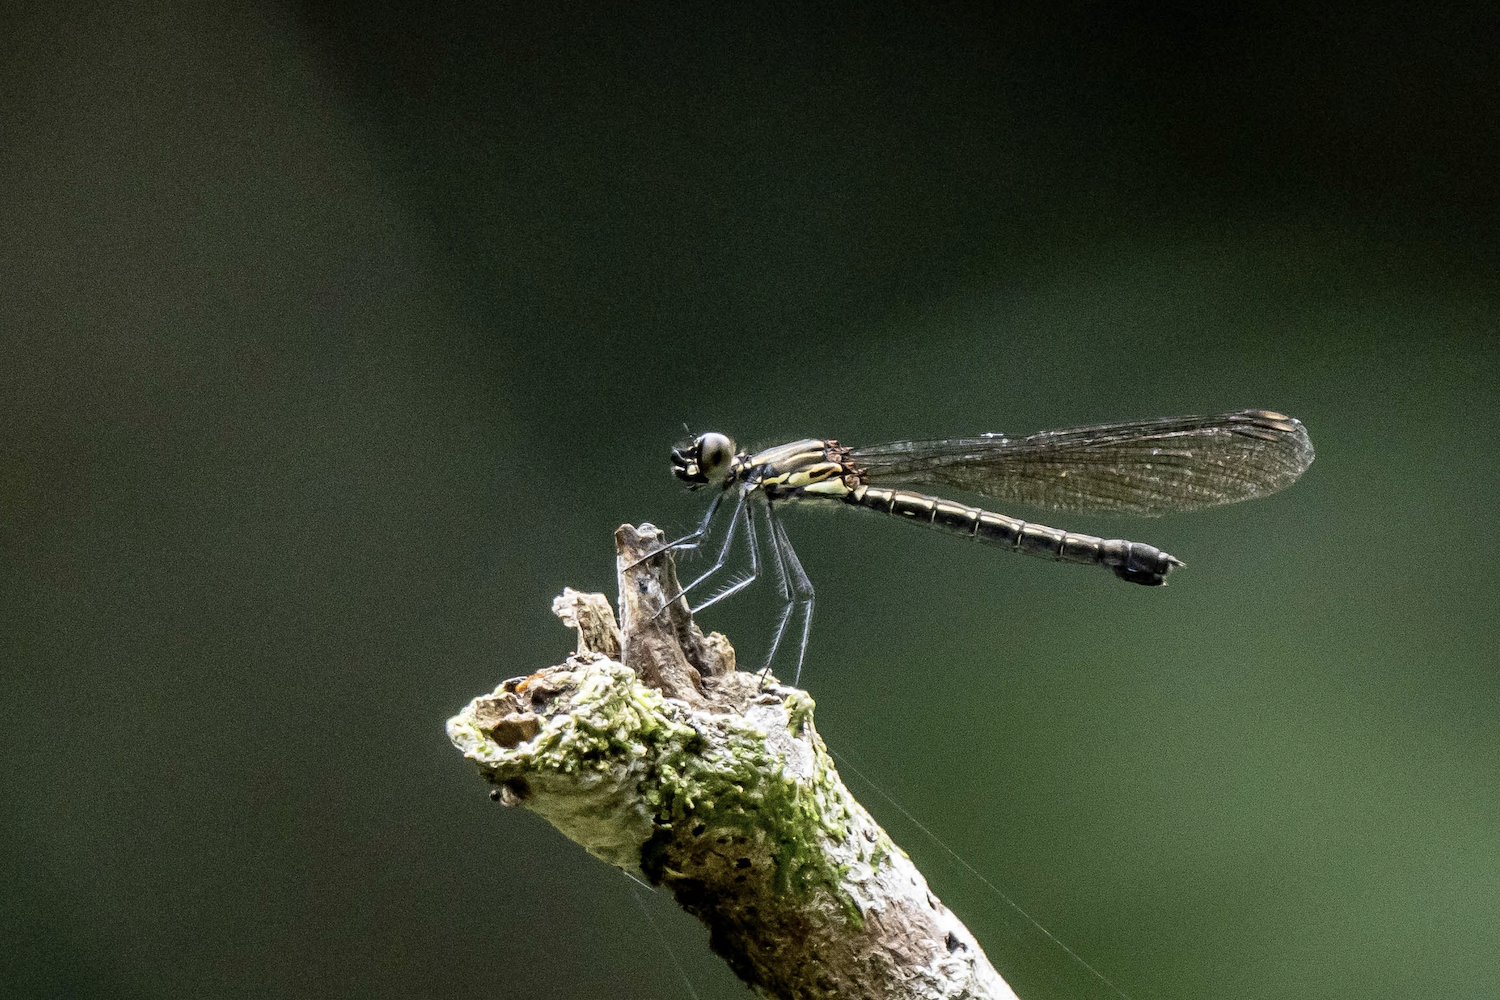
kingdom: Animalia
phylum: Arthropoda
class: Insecta
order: Odonata
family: Chlorocyphidae
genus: Heliocypha
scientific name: Heliocypha perforata
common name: Common blue jewel
